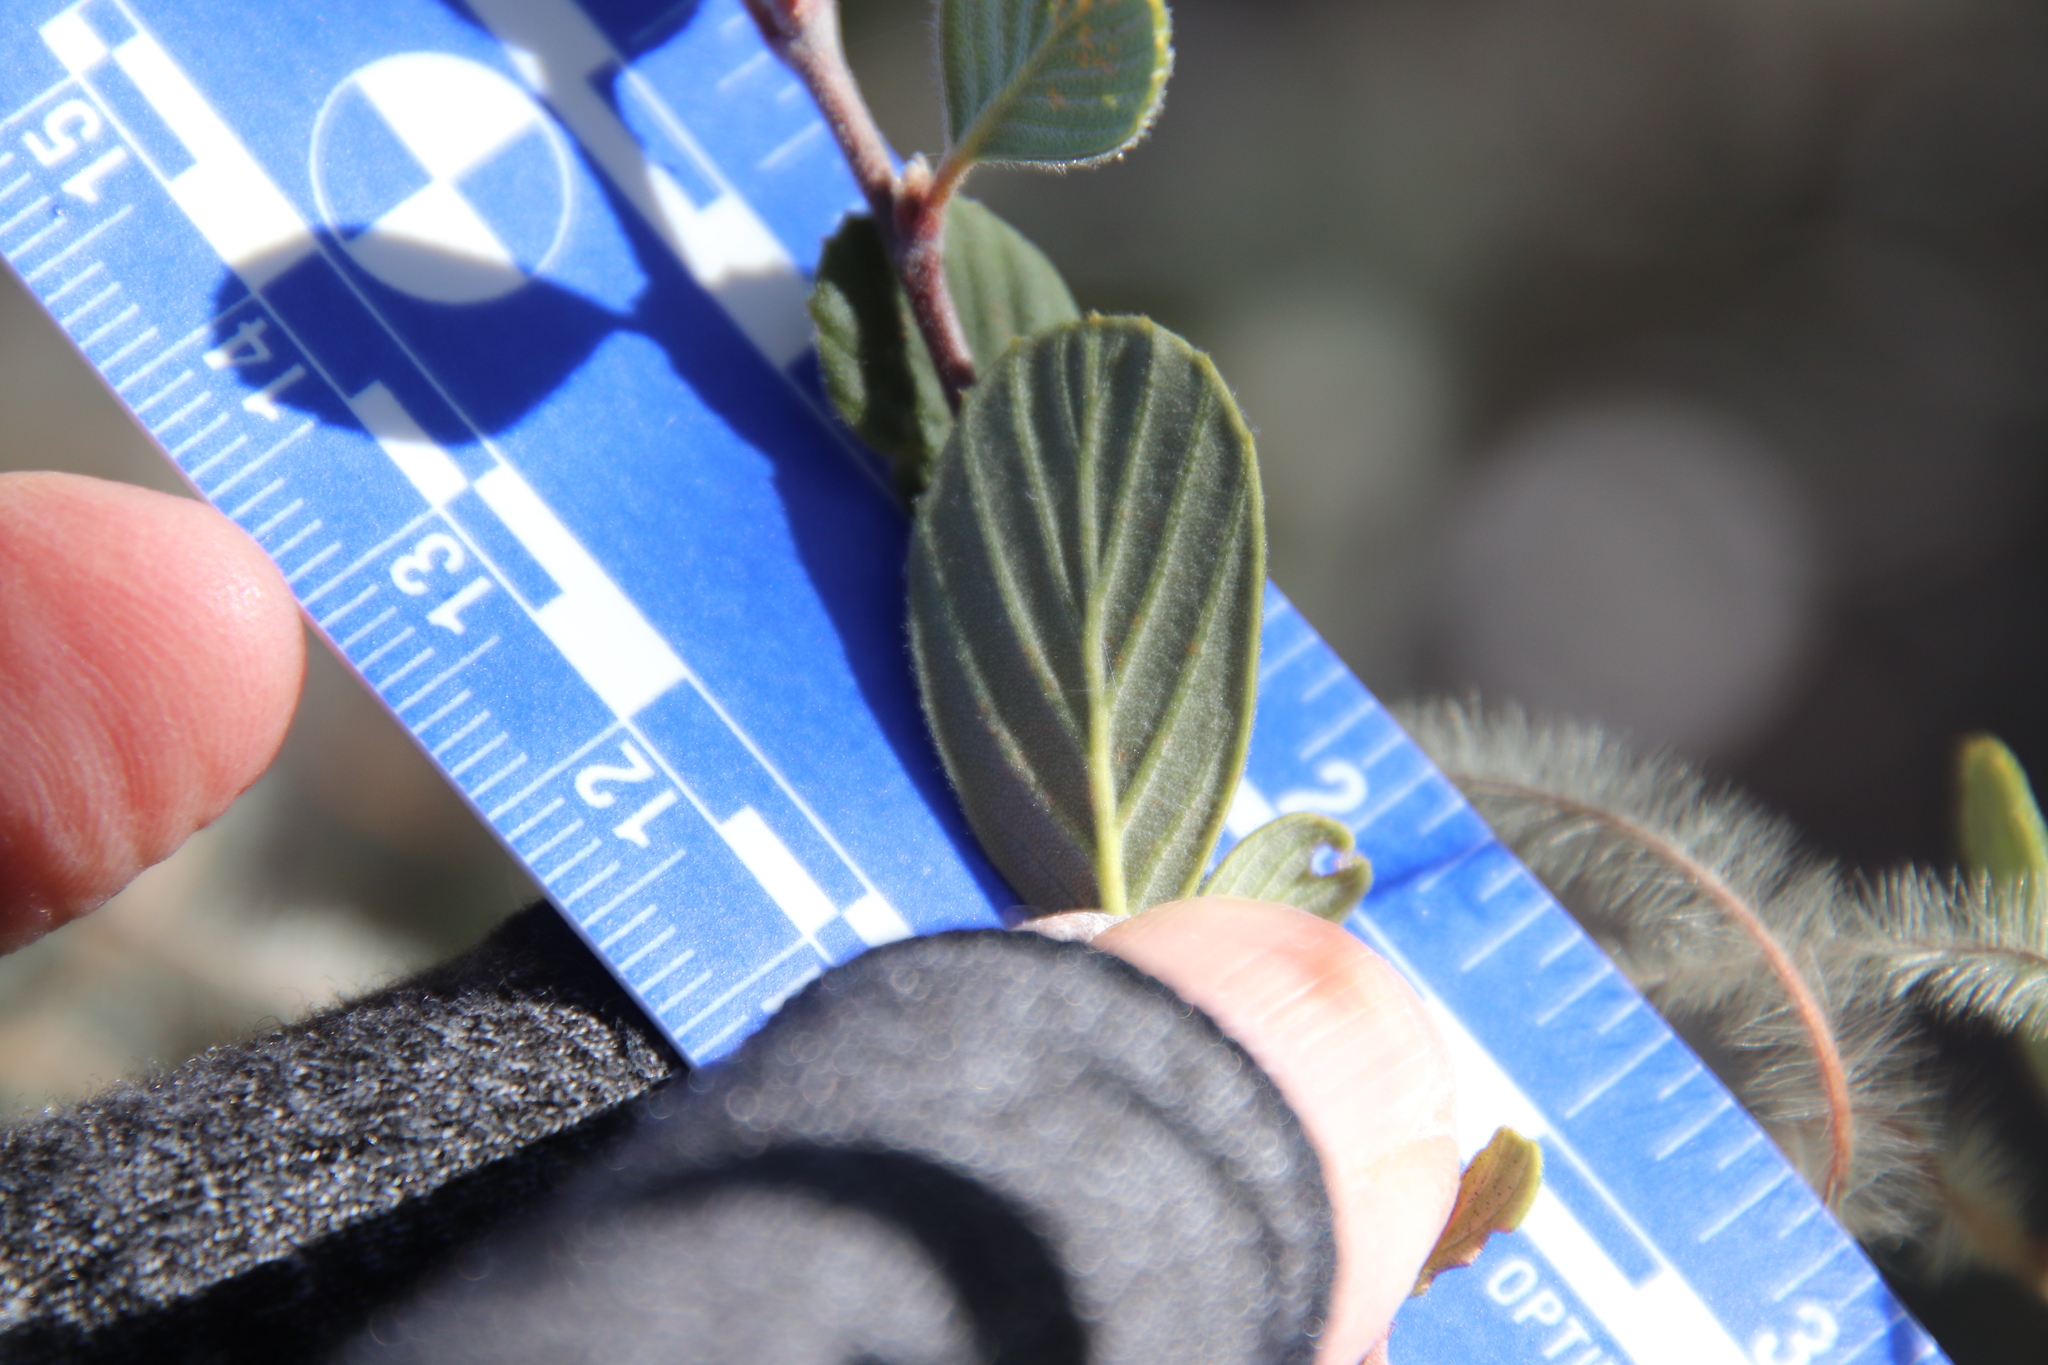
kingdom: Plantae
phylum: Tracheophyta
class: Magnoliopsida
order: Rosales
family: Rosaceae
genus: Cercocarpus
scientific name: Cercocarpus betuloides
